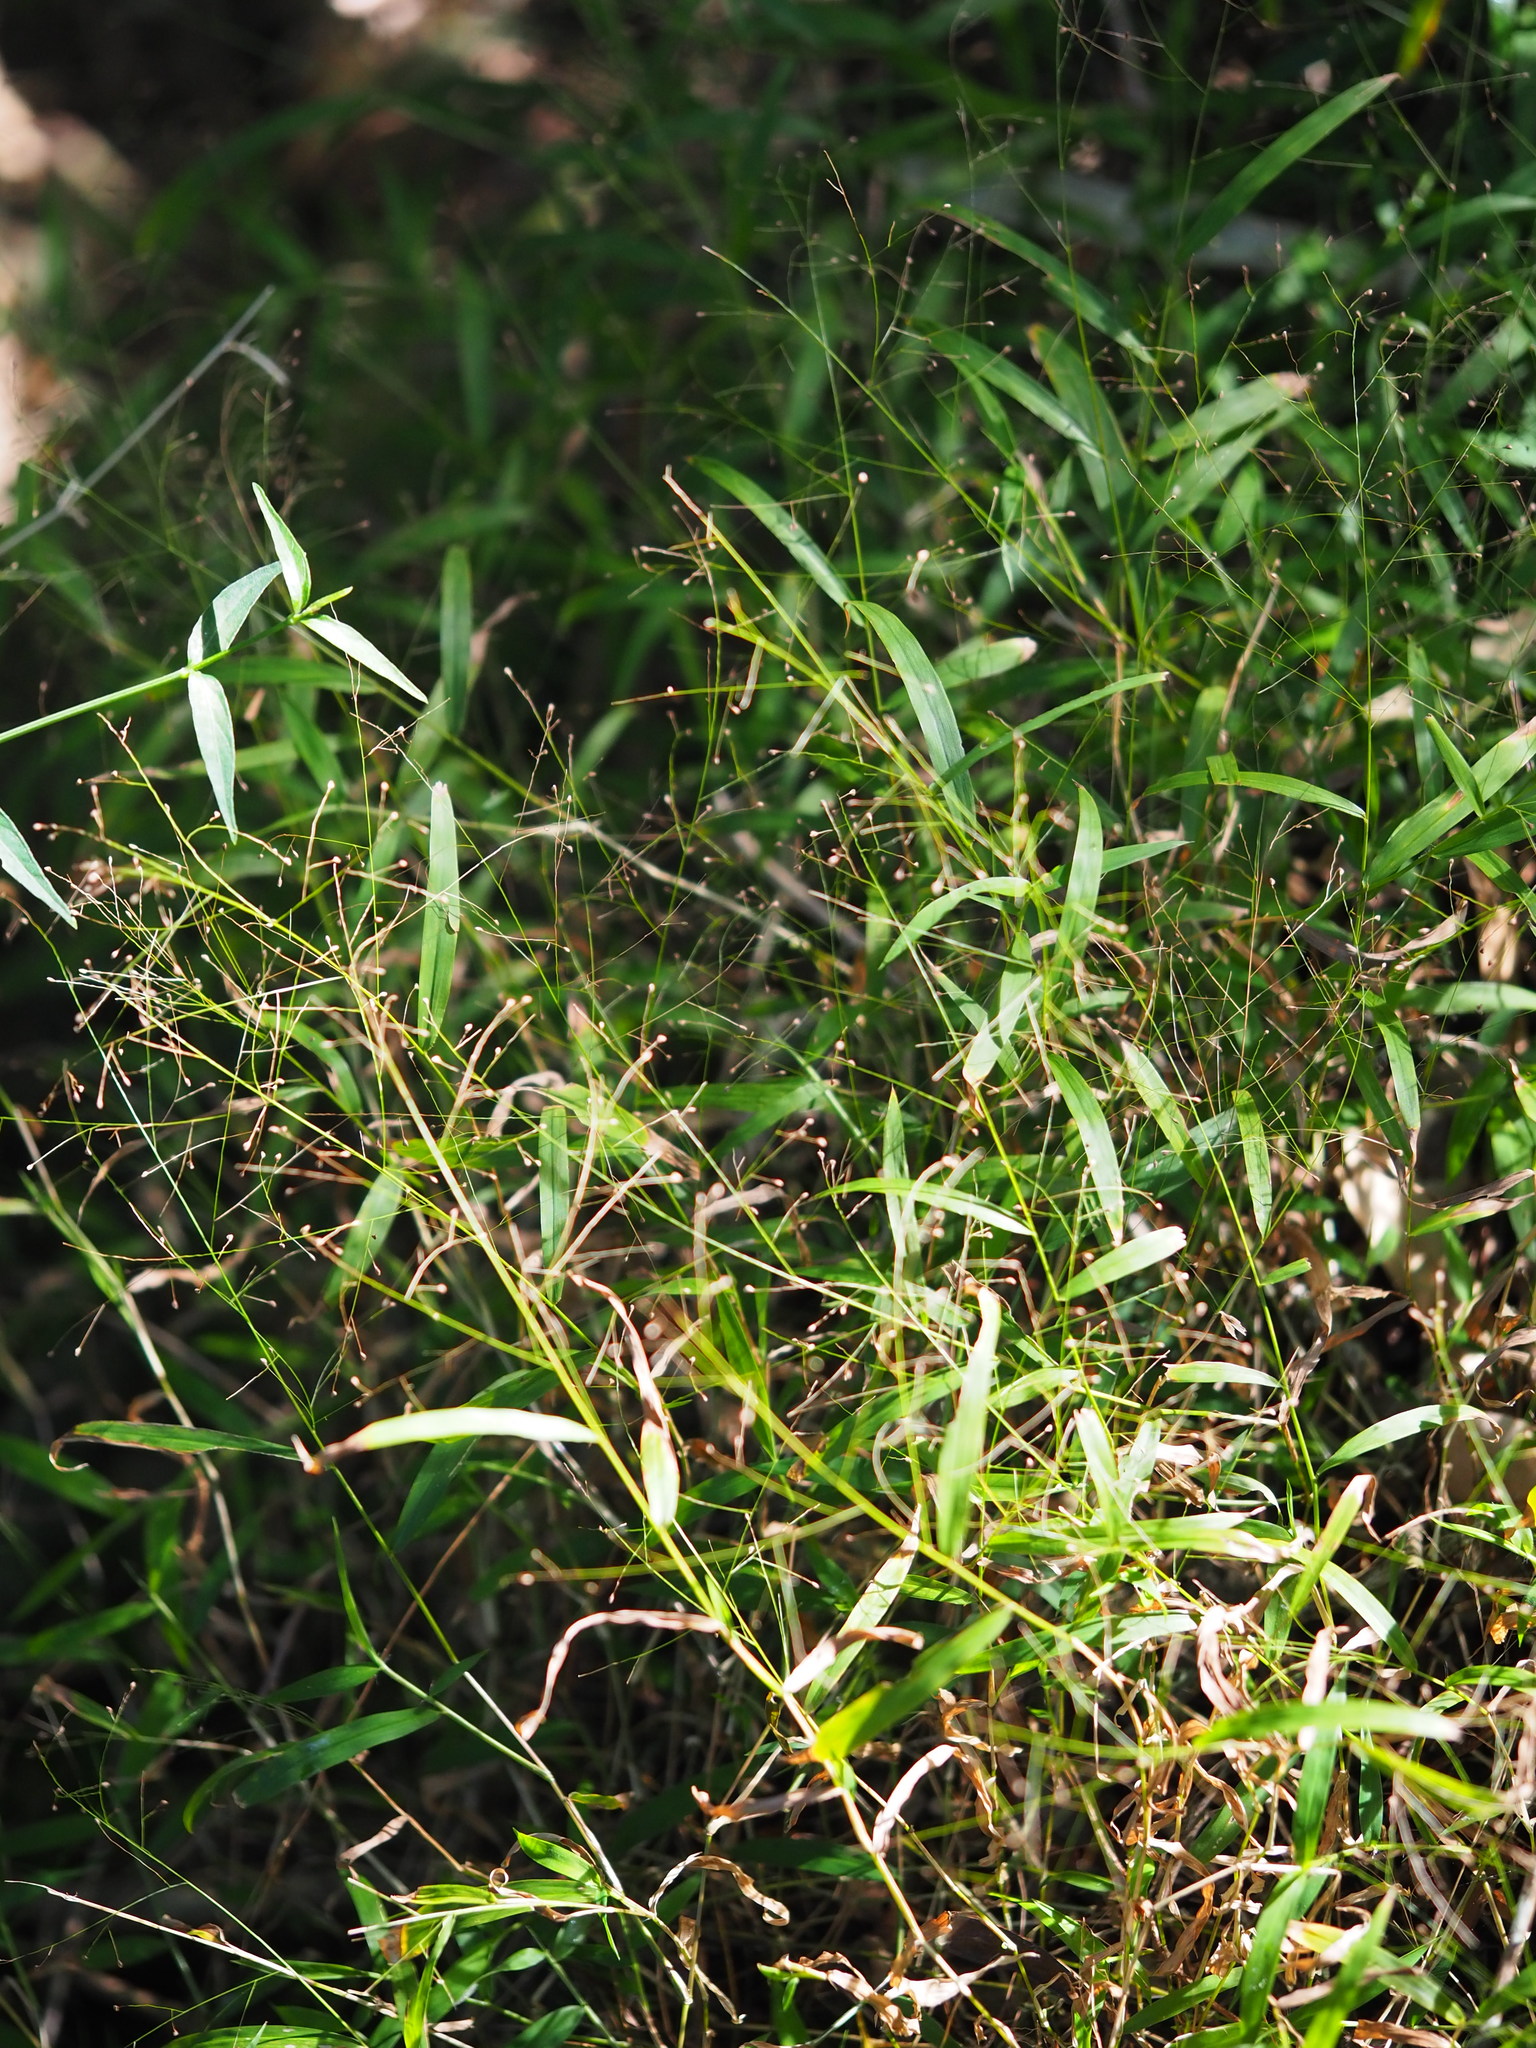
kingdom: Plantae
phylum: Tracheophyta
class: Liliopsida
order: Poales
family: Poaceae
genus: Cyrtococcum
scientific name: Cyrtococcum patens
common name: Broad-leaved bowgrass
